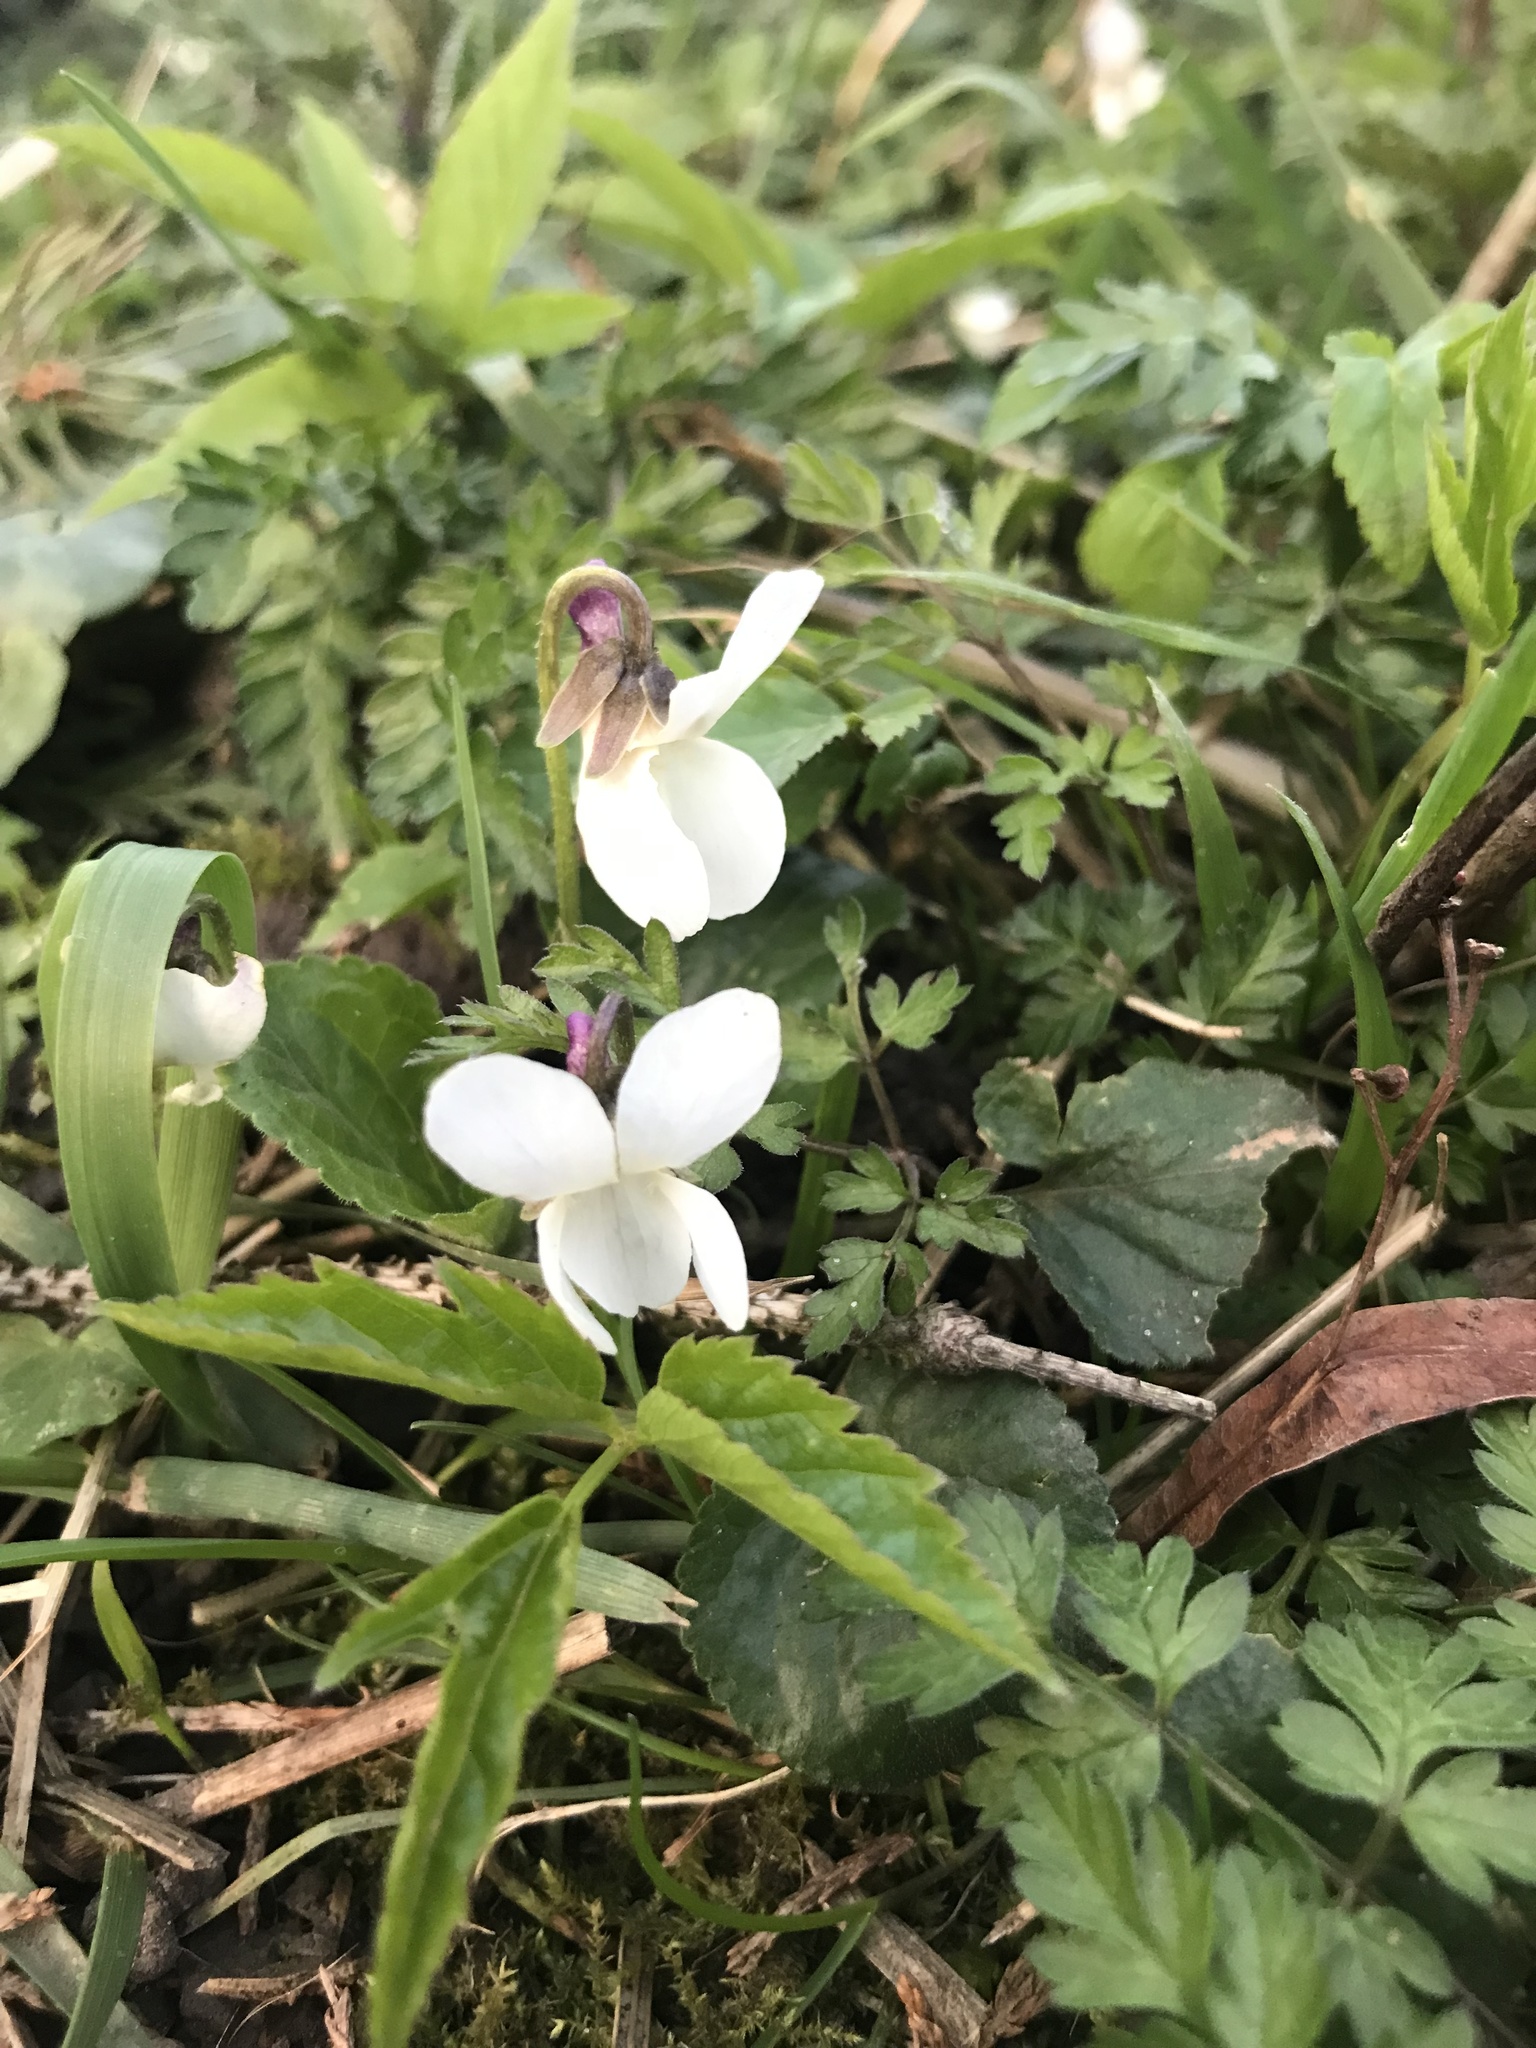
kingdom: Plantae
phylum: Tracheophyta
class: Magnoliopsida
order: Malpighiales
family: Violaceae
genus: Viola
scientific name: Viola odorata
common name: Sweet violet
